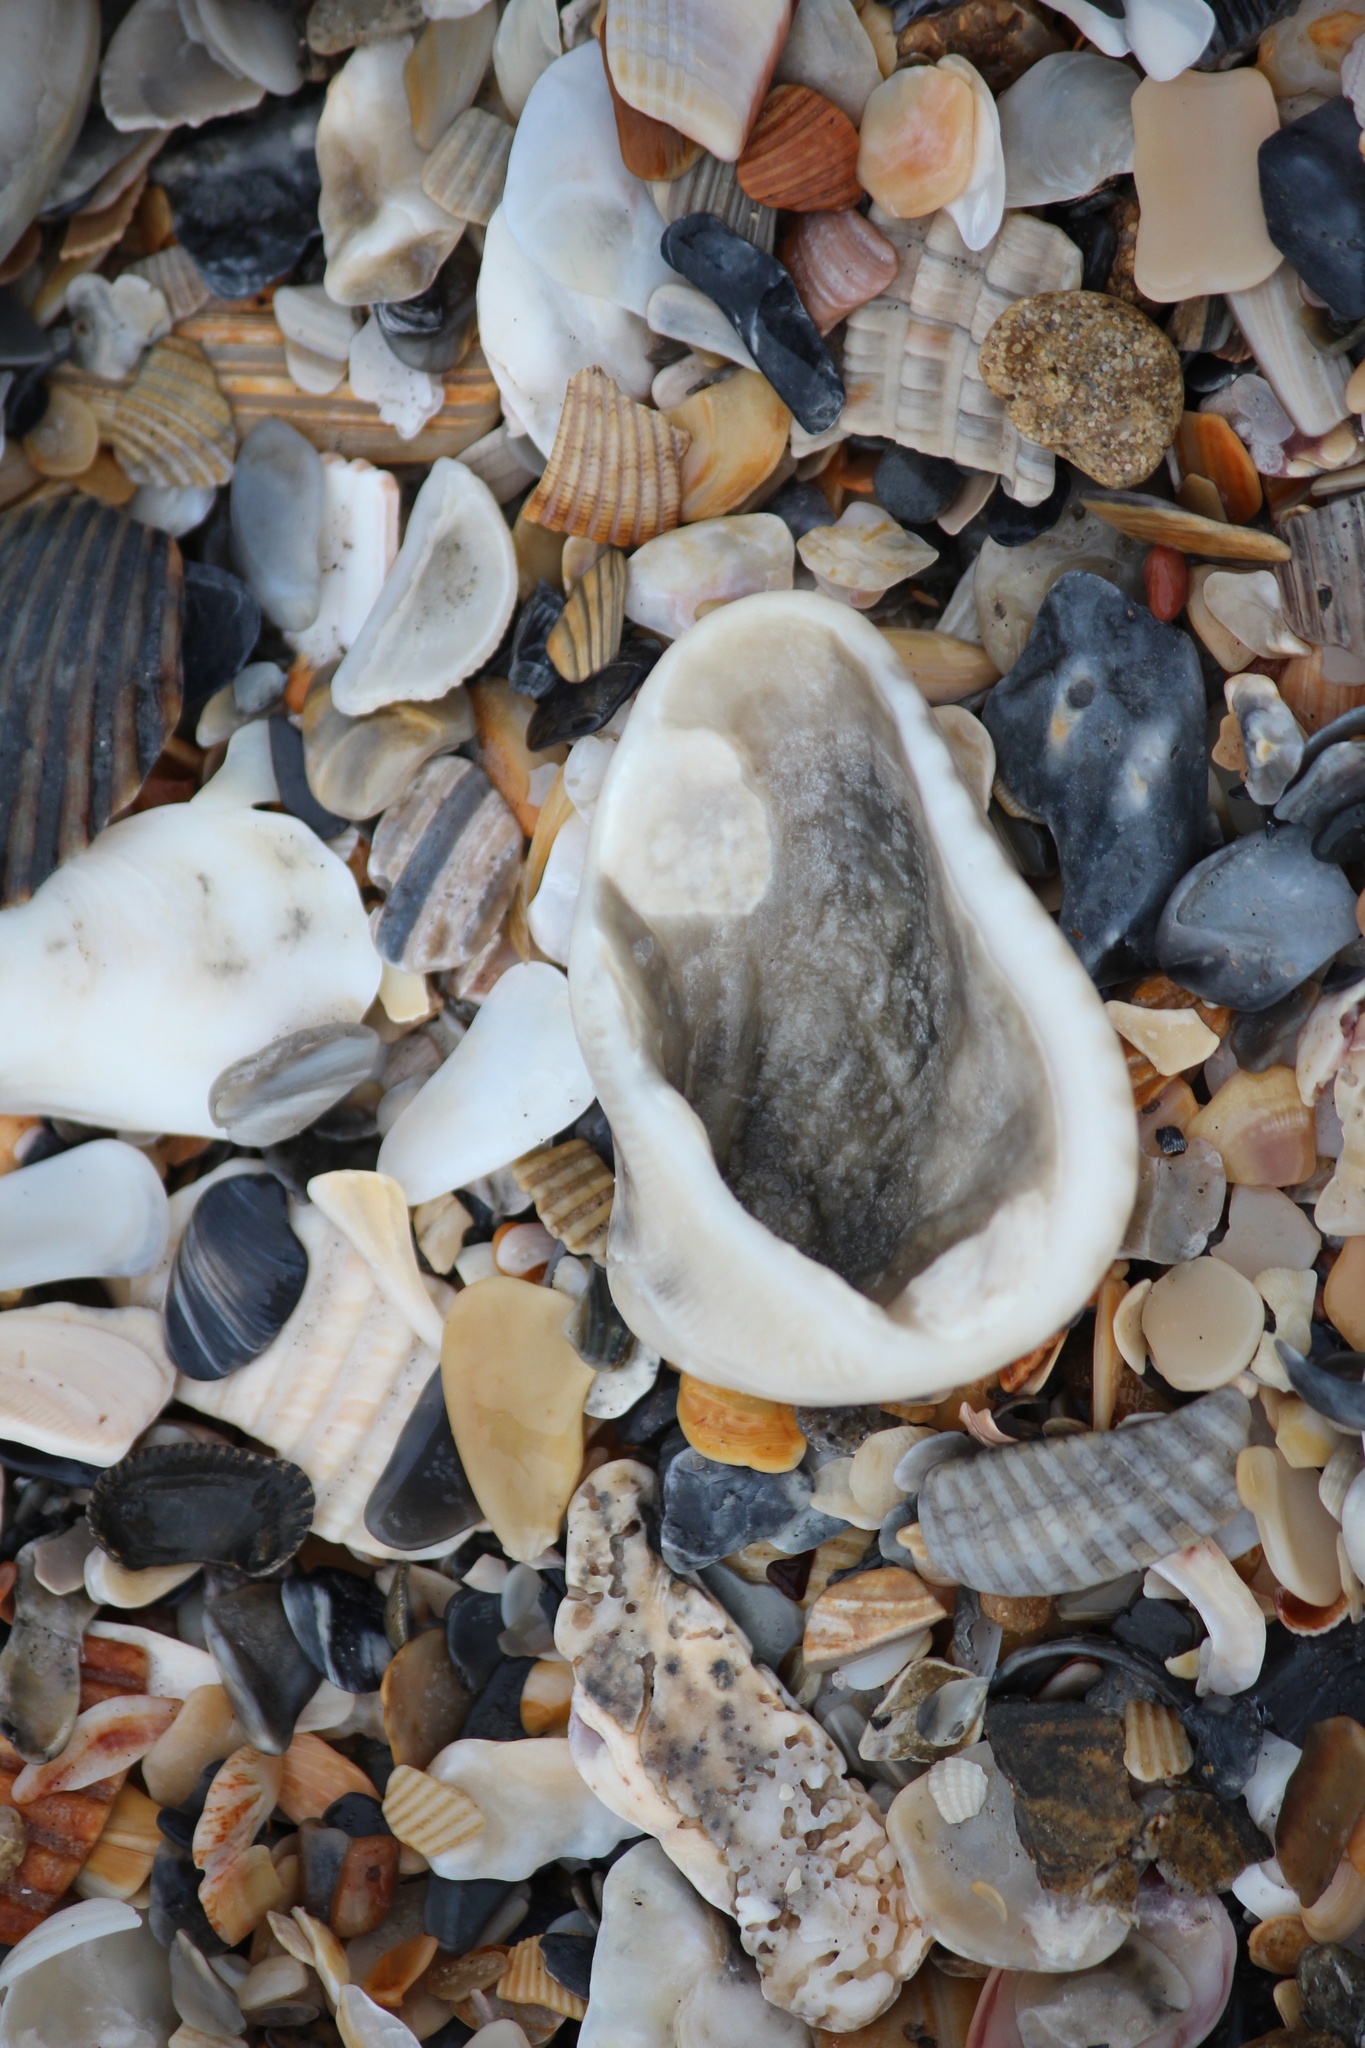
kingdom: Animalia
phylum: Mollusca
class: Bivalvia
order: Arcida
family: Noetiidae
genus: Noetia
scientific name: Noetia ponderosa
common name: Ponderous ark
